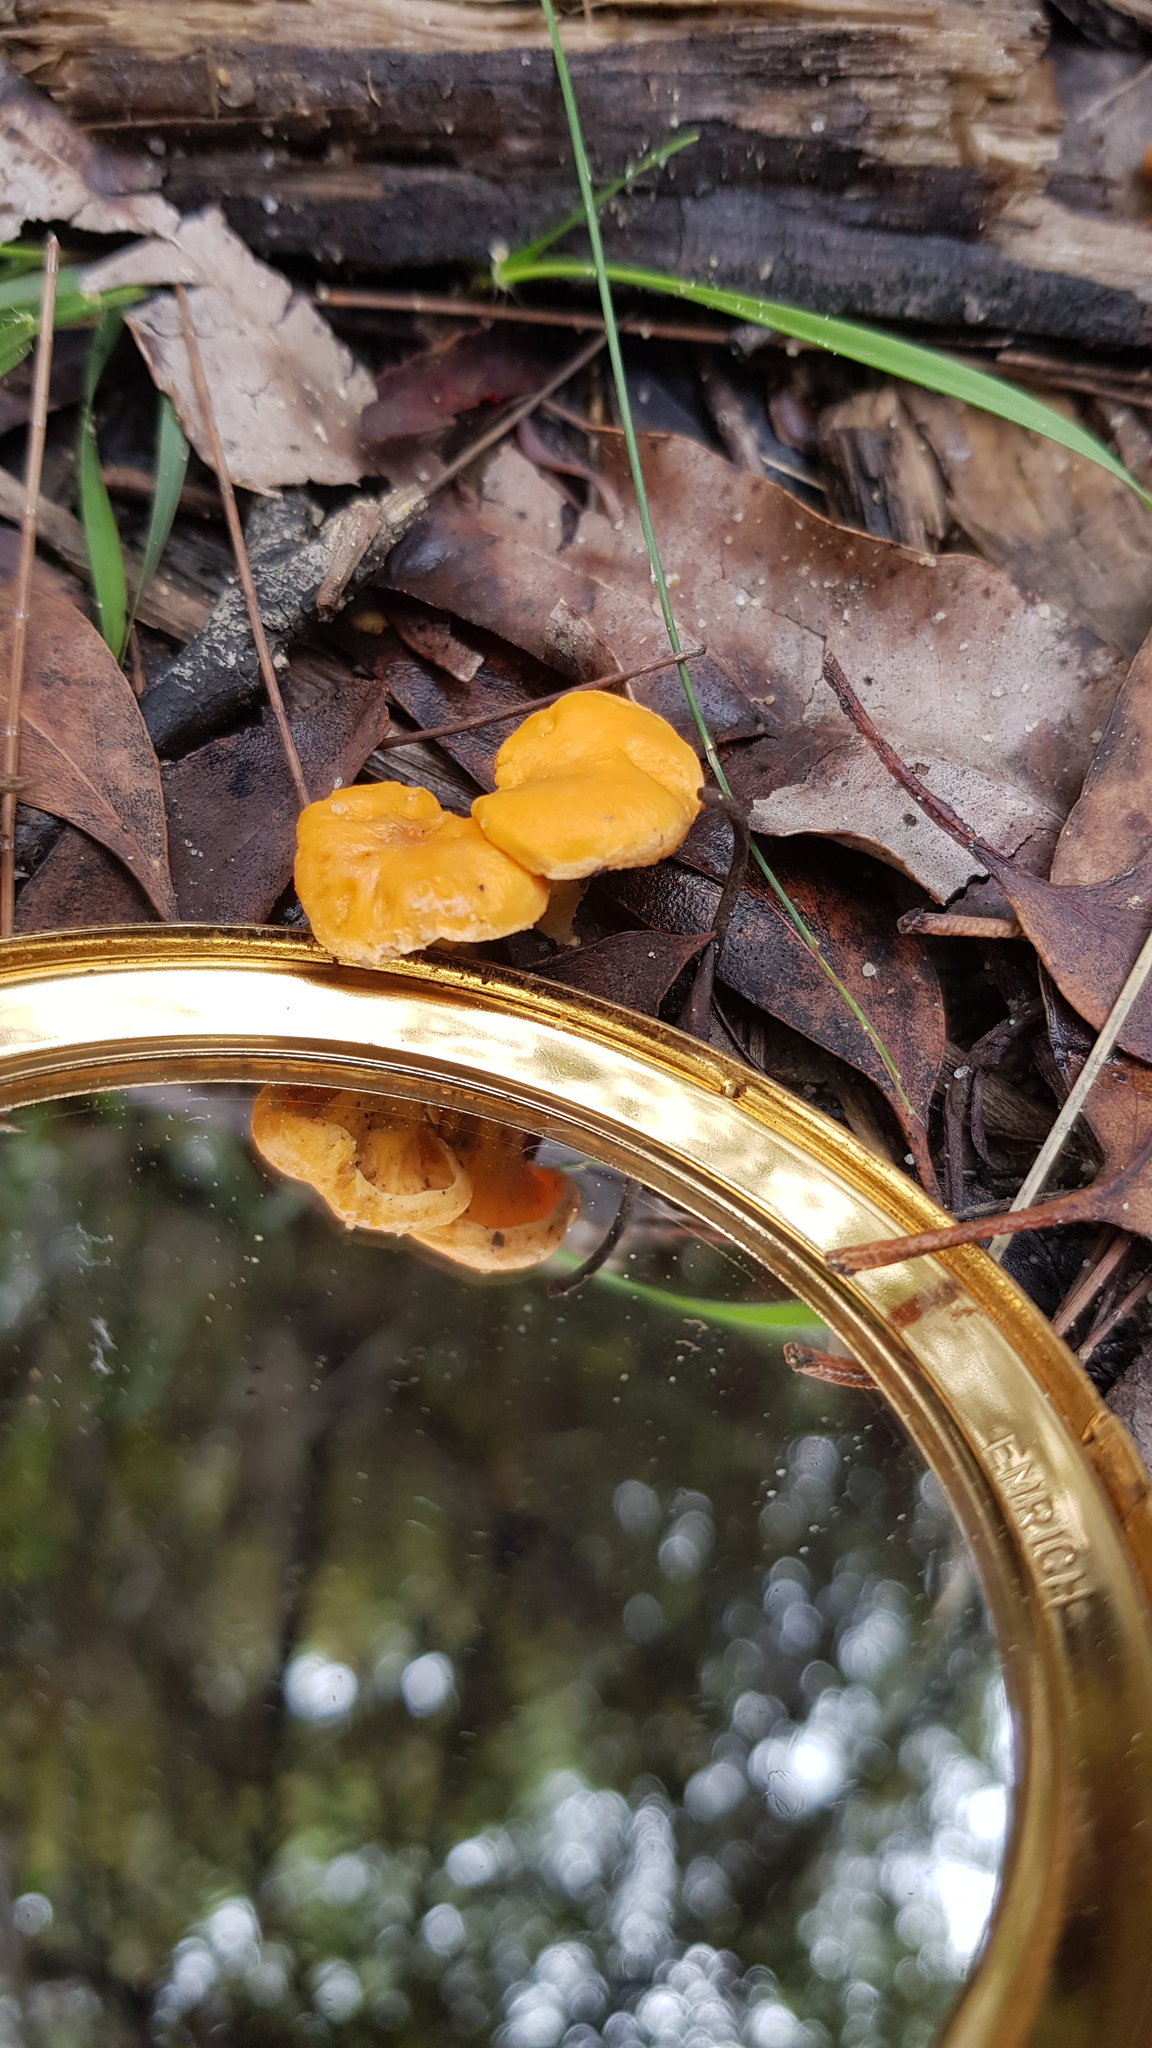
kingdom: Fungi
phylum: Basidiomycota
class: Agaricomycetes
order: Cantharellales
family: Hydnaceae
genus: Cantharellus
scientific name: Cantharellus
